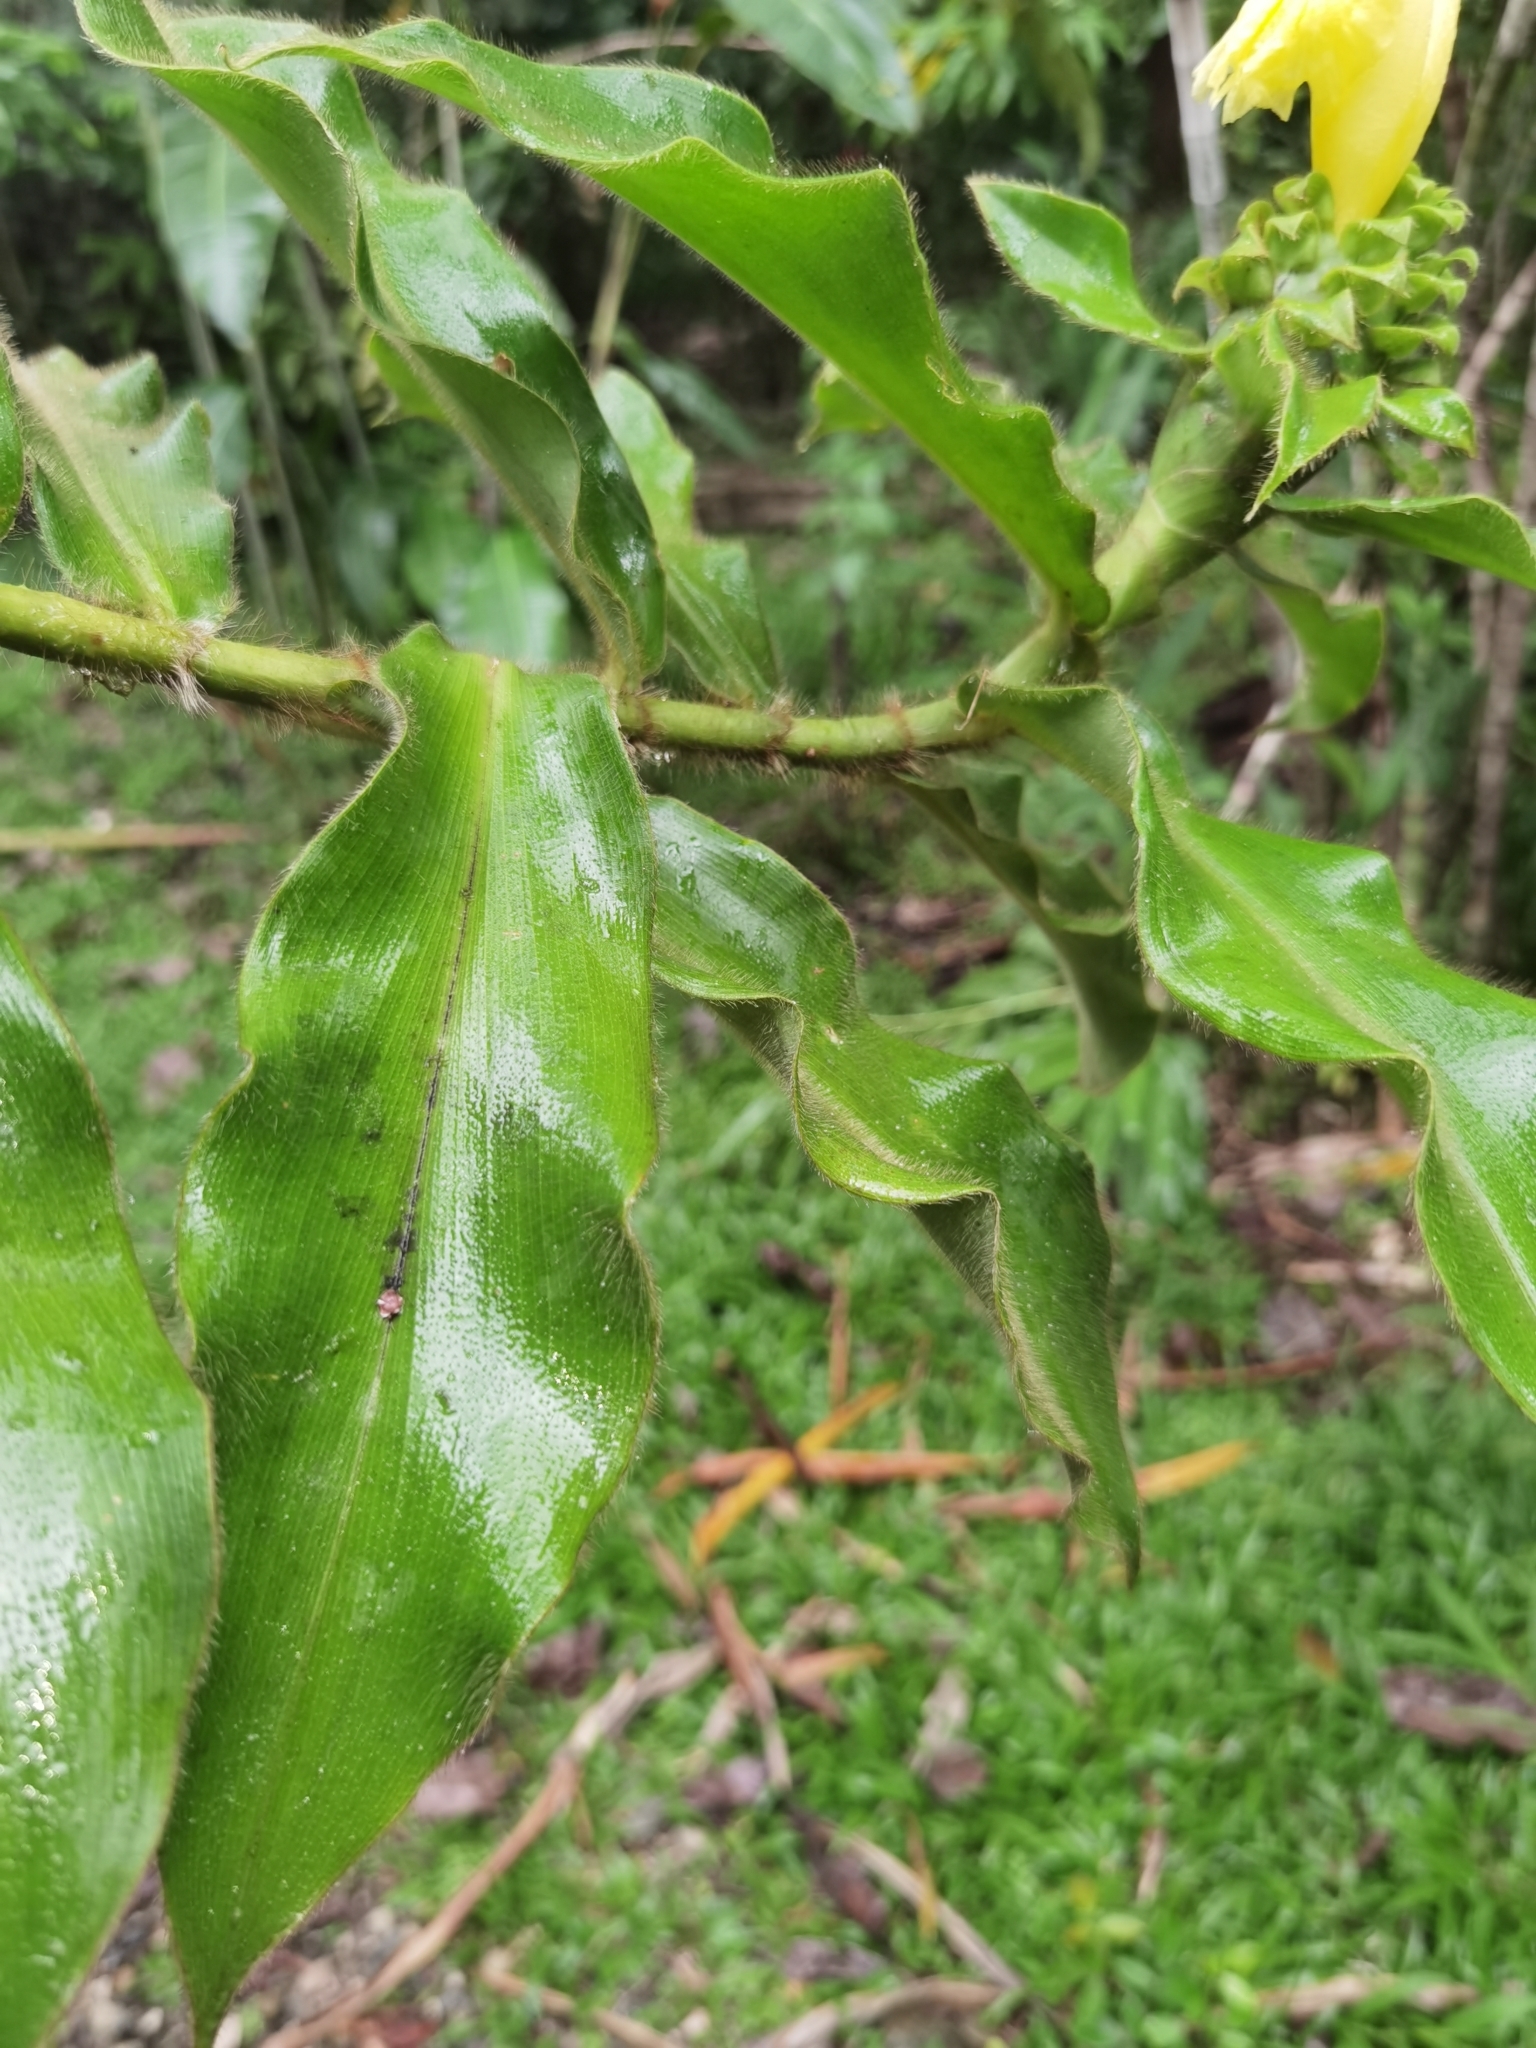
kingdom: Plantae
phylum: Tracheophyta
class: Liliopsida
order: Zingiberales
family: Costaceae
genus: Costus
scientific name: Costus villosissimus
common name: Spiral flag
